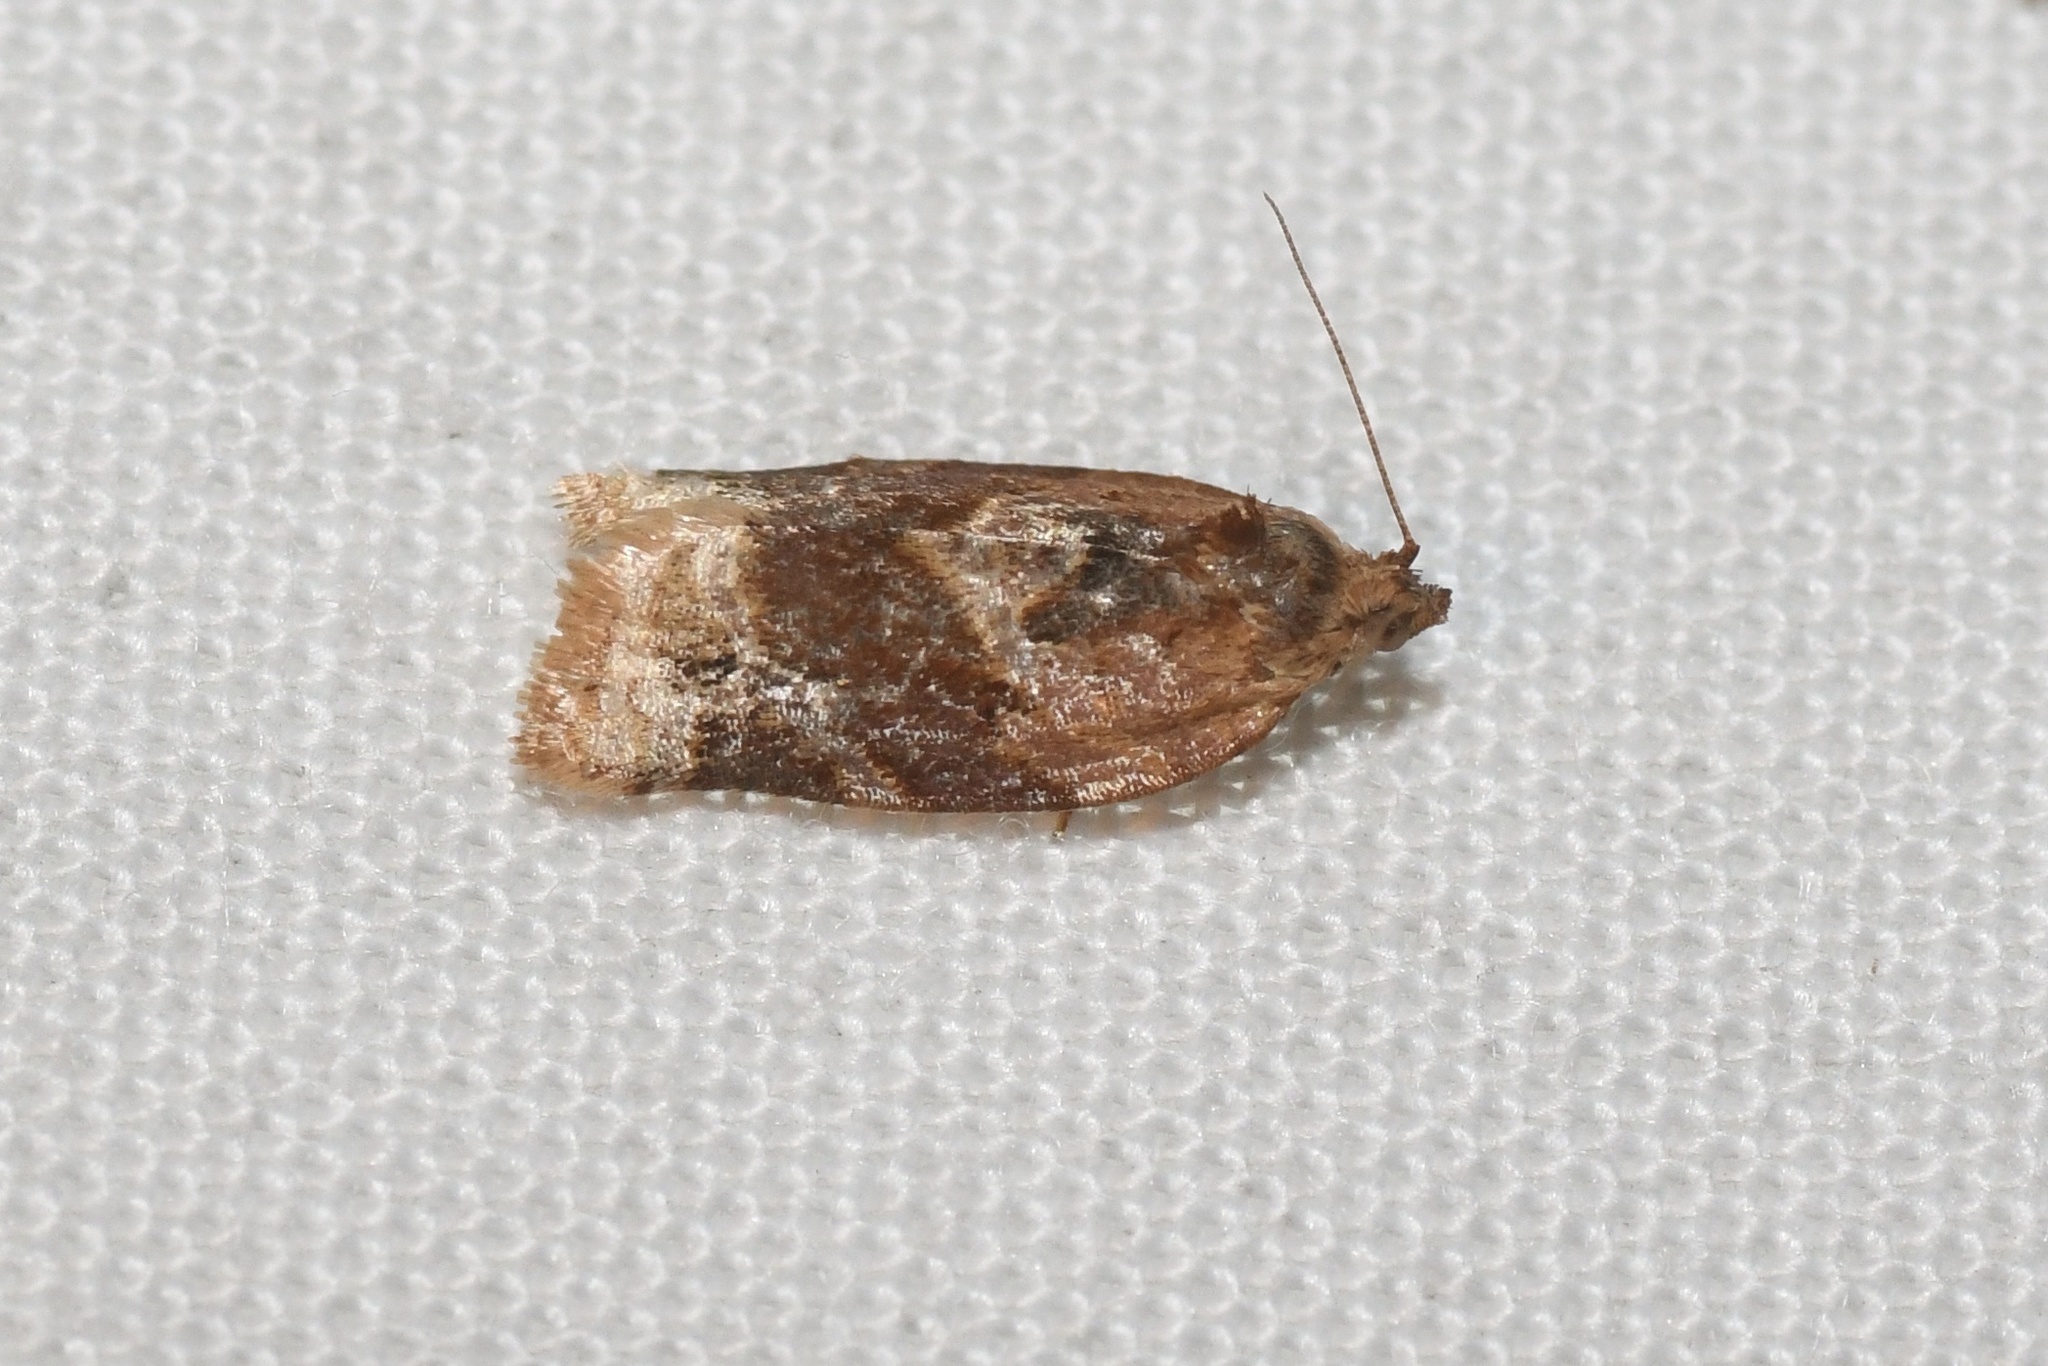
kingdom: Animalia
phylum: Arthropoda
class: Insecta
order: Lepidoptera
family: Tortricidae
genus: Argyrotaenia
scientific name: Argyrotaenia velutinana
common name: Red-banded leafroller moth
